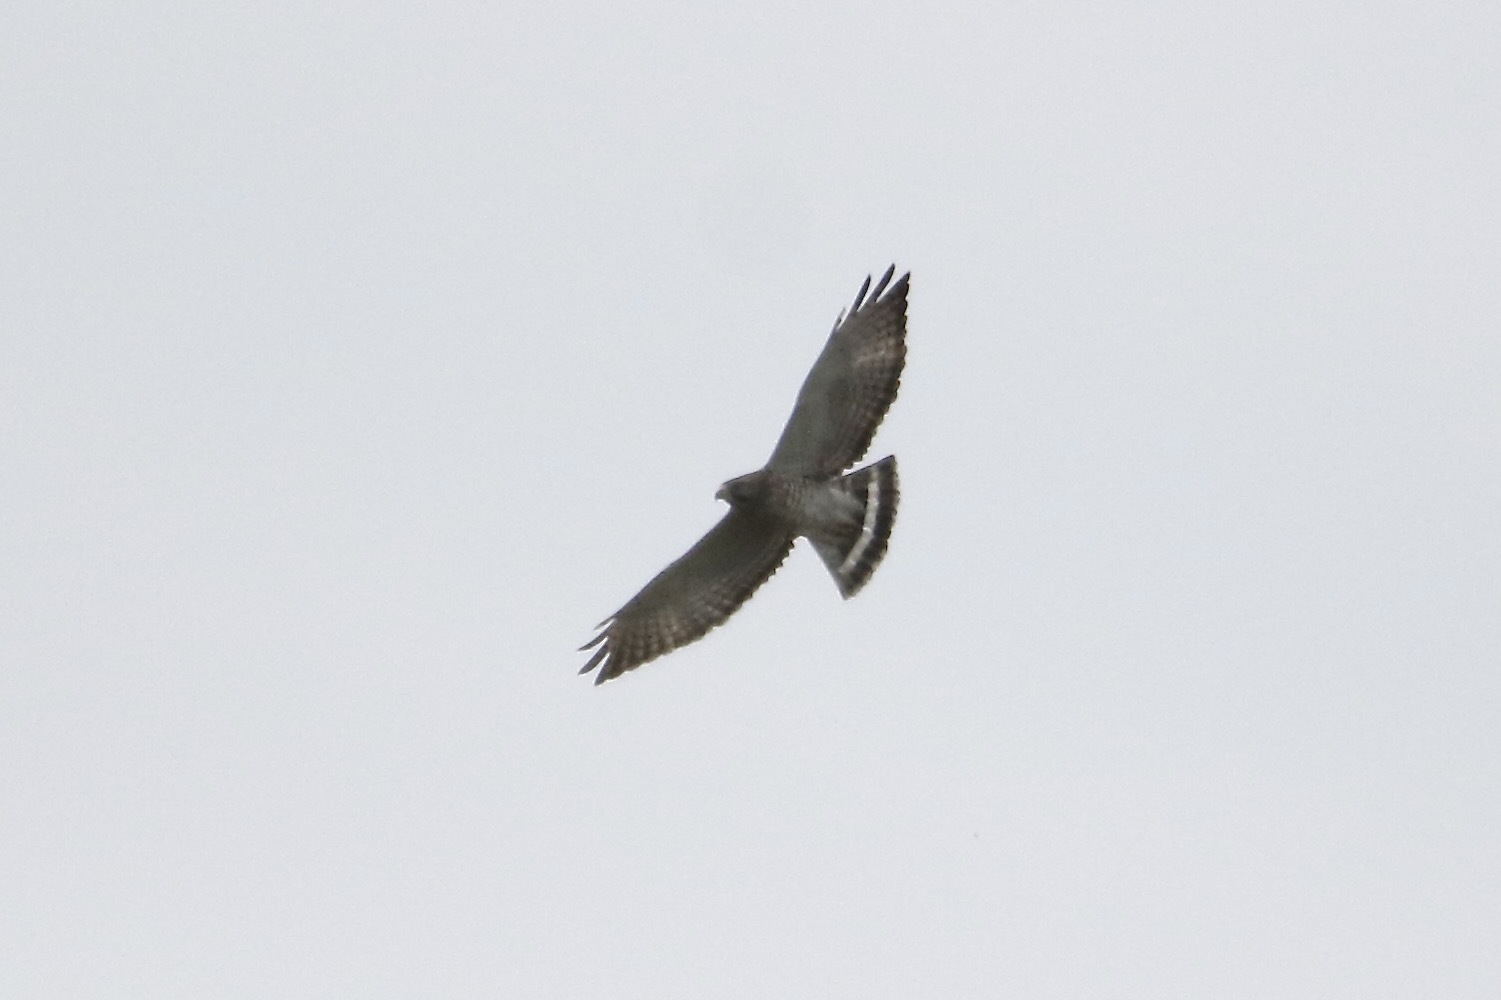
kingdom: Animalia
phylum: Chordata
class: Aves
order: Accipitriformes
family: Accipitridae
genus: Buteo
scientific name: Buteo platypterus
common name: Broad-winged hawk
